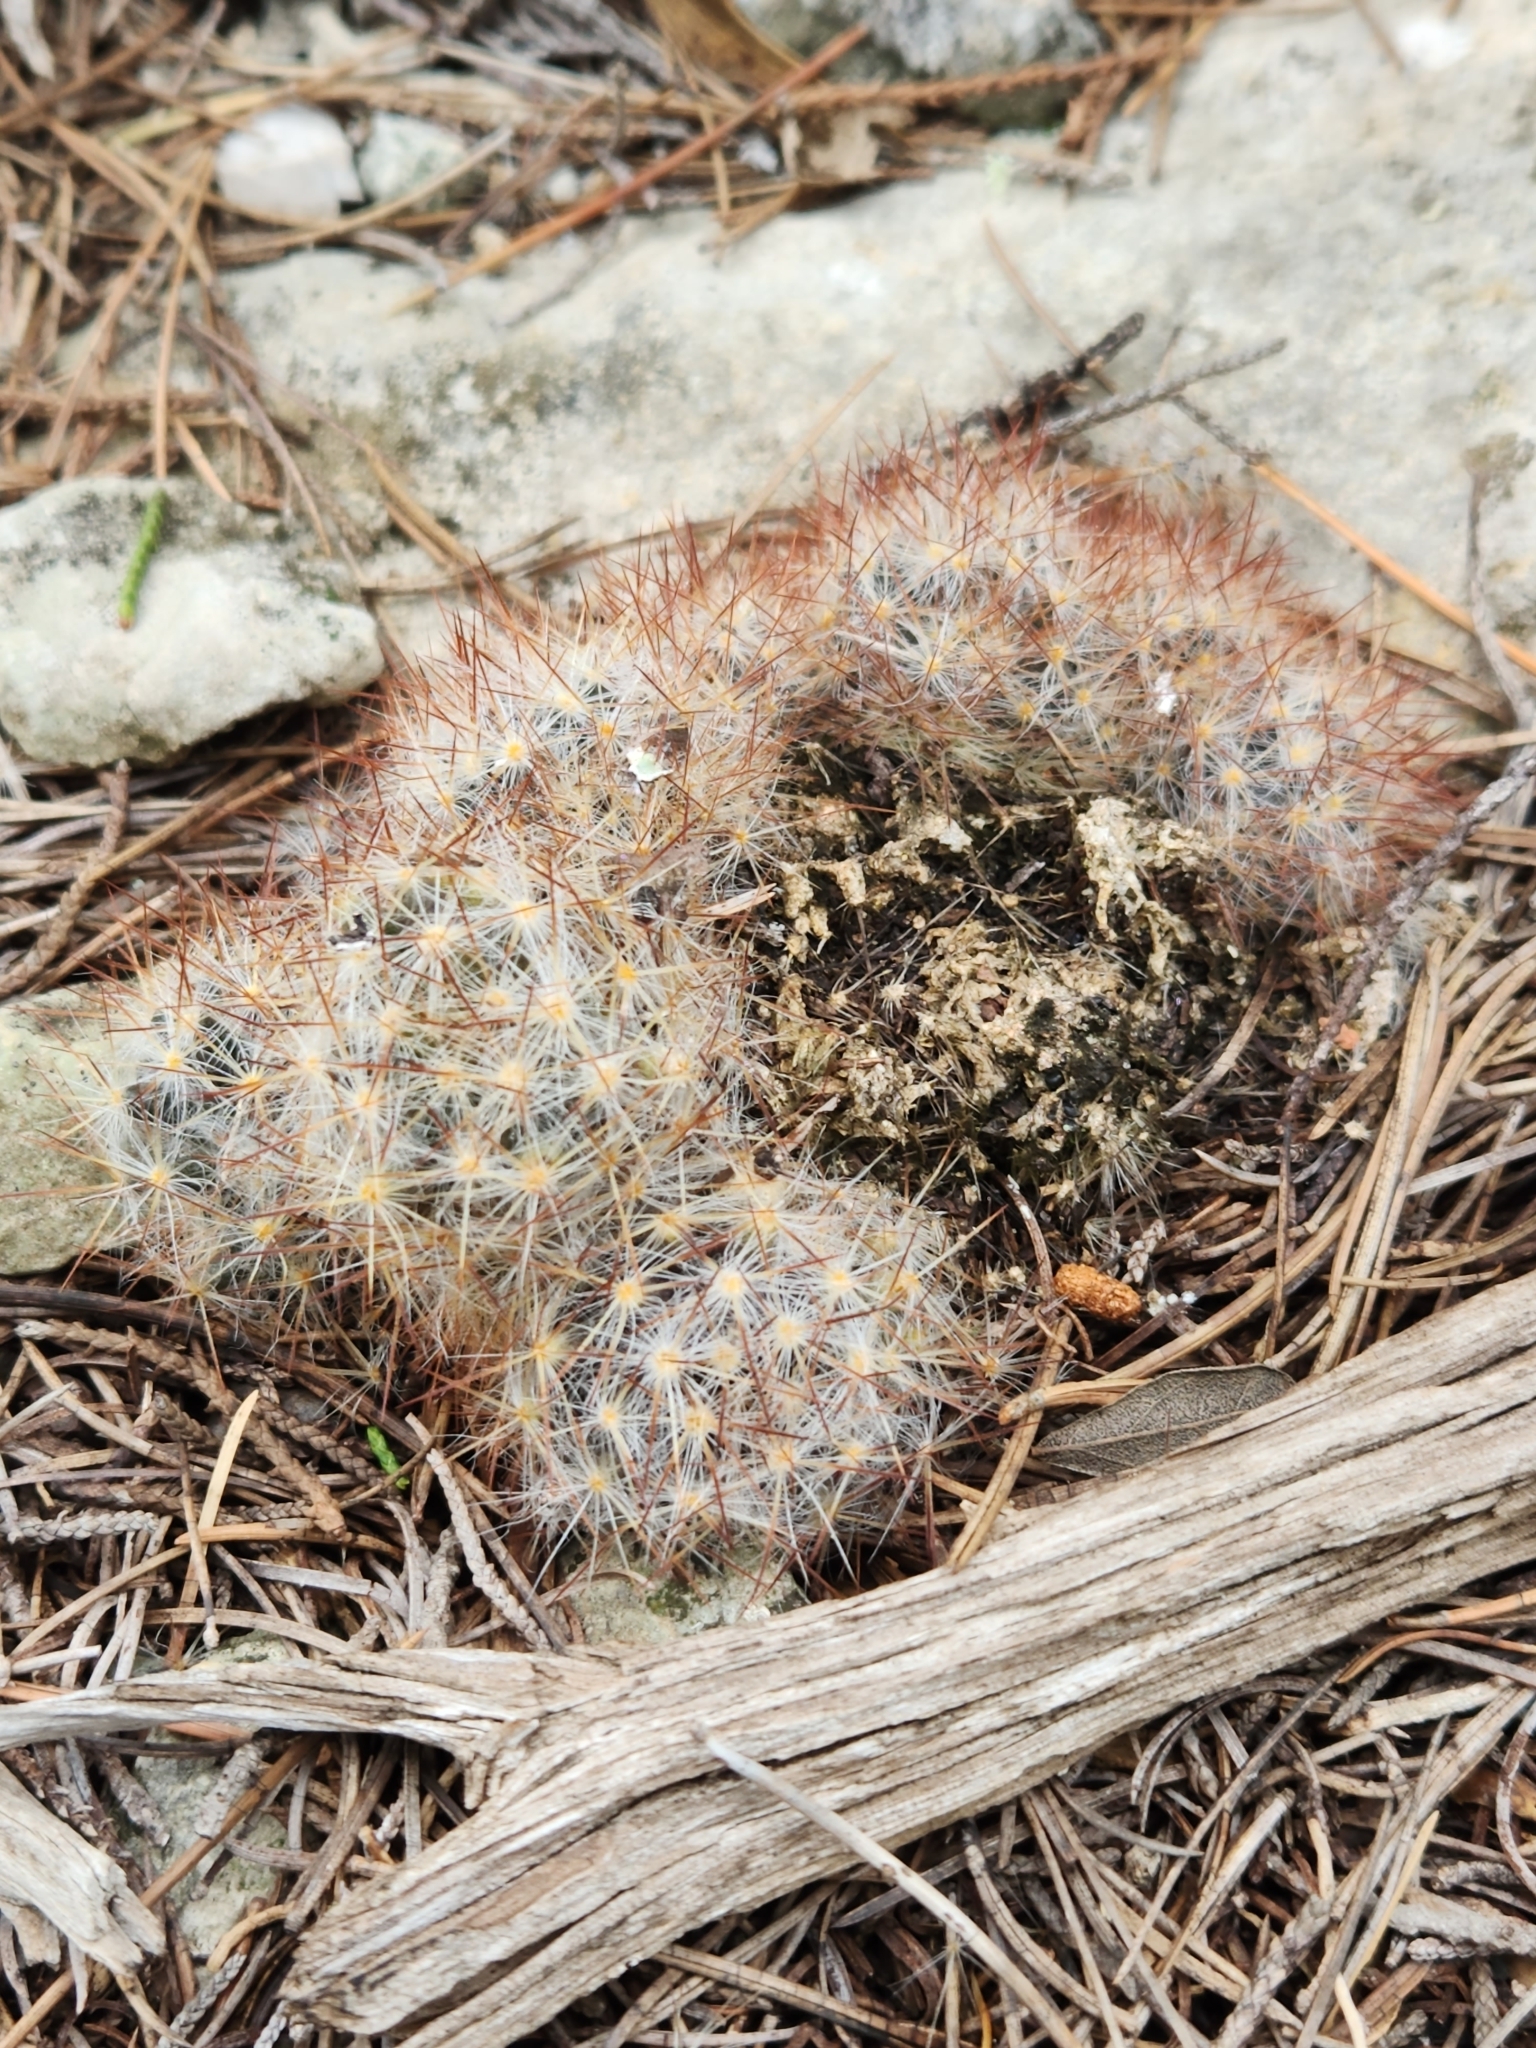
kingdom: Plantae
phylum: Tracheophyta
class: Magnoliopsida
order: Caryophyllales
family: Cactaceae
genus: Mammillaria
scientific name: Mammillaria prolifera
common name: Texas nipple cactus
